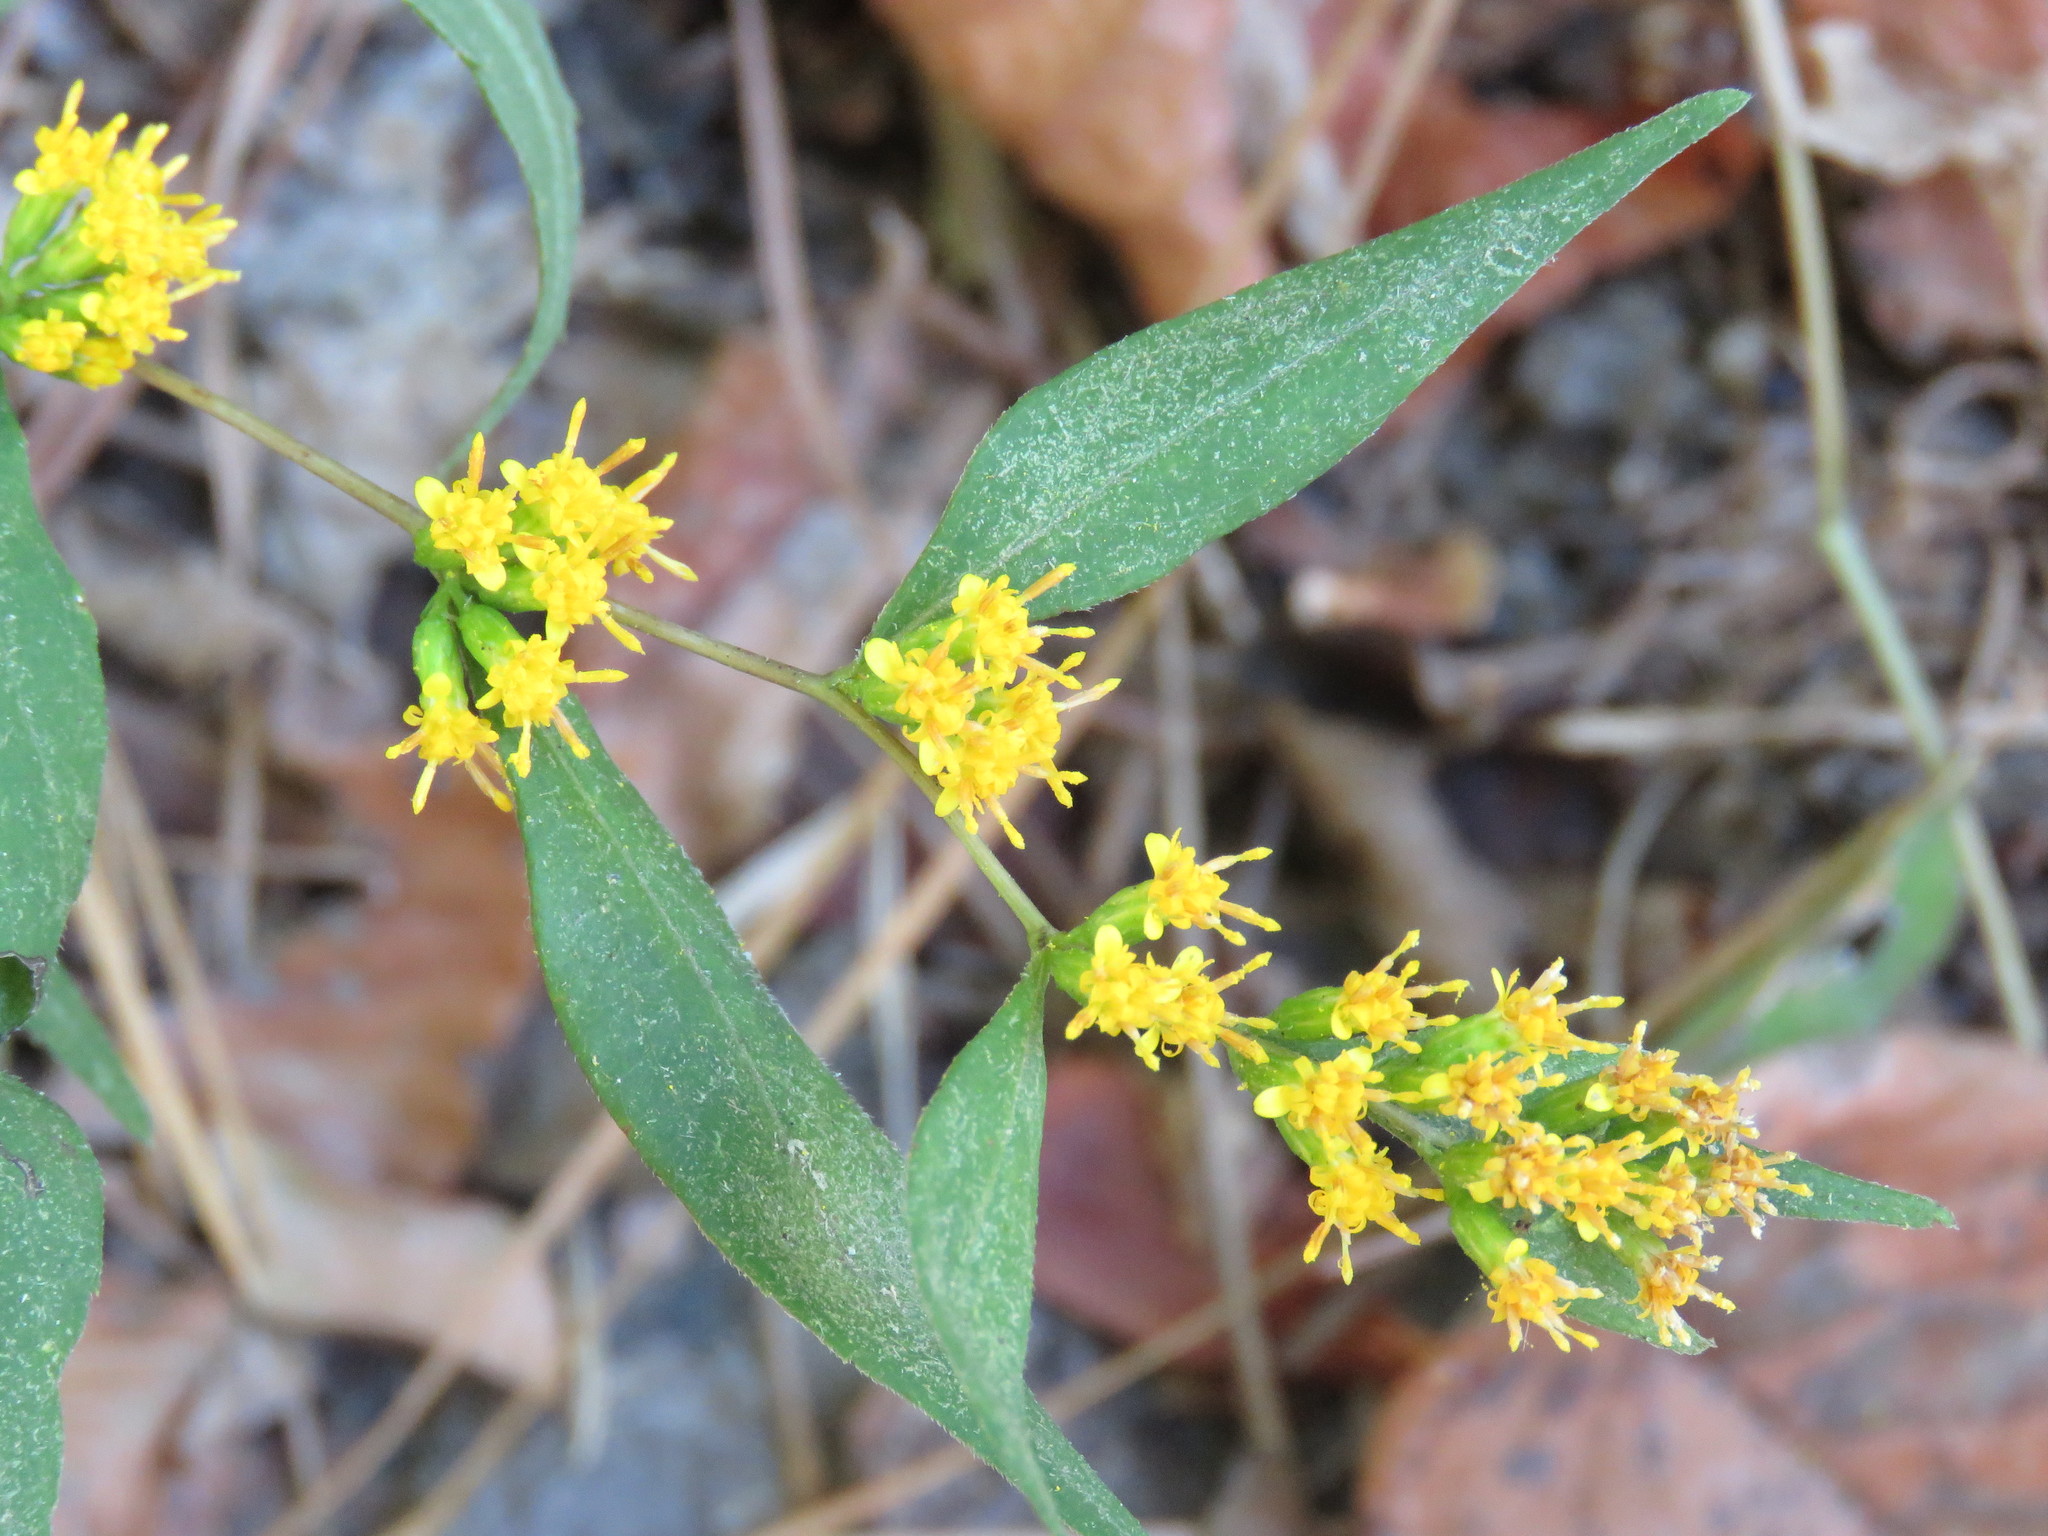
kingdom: Plantae
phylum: Tracheophyta
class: Magnoliopsida
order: Asterales
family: Asteraceae
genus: Solidago
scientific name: Solidago caesia
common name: Woodland goldenrod
